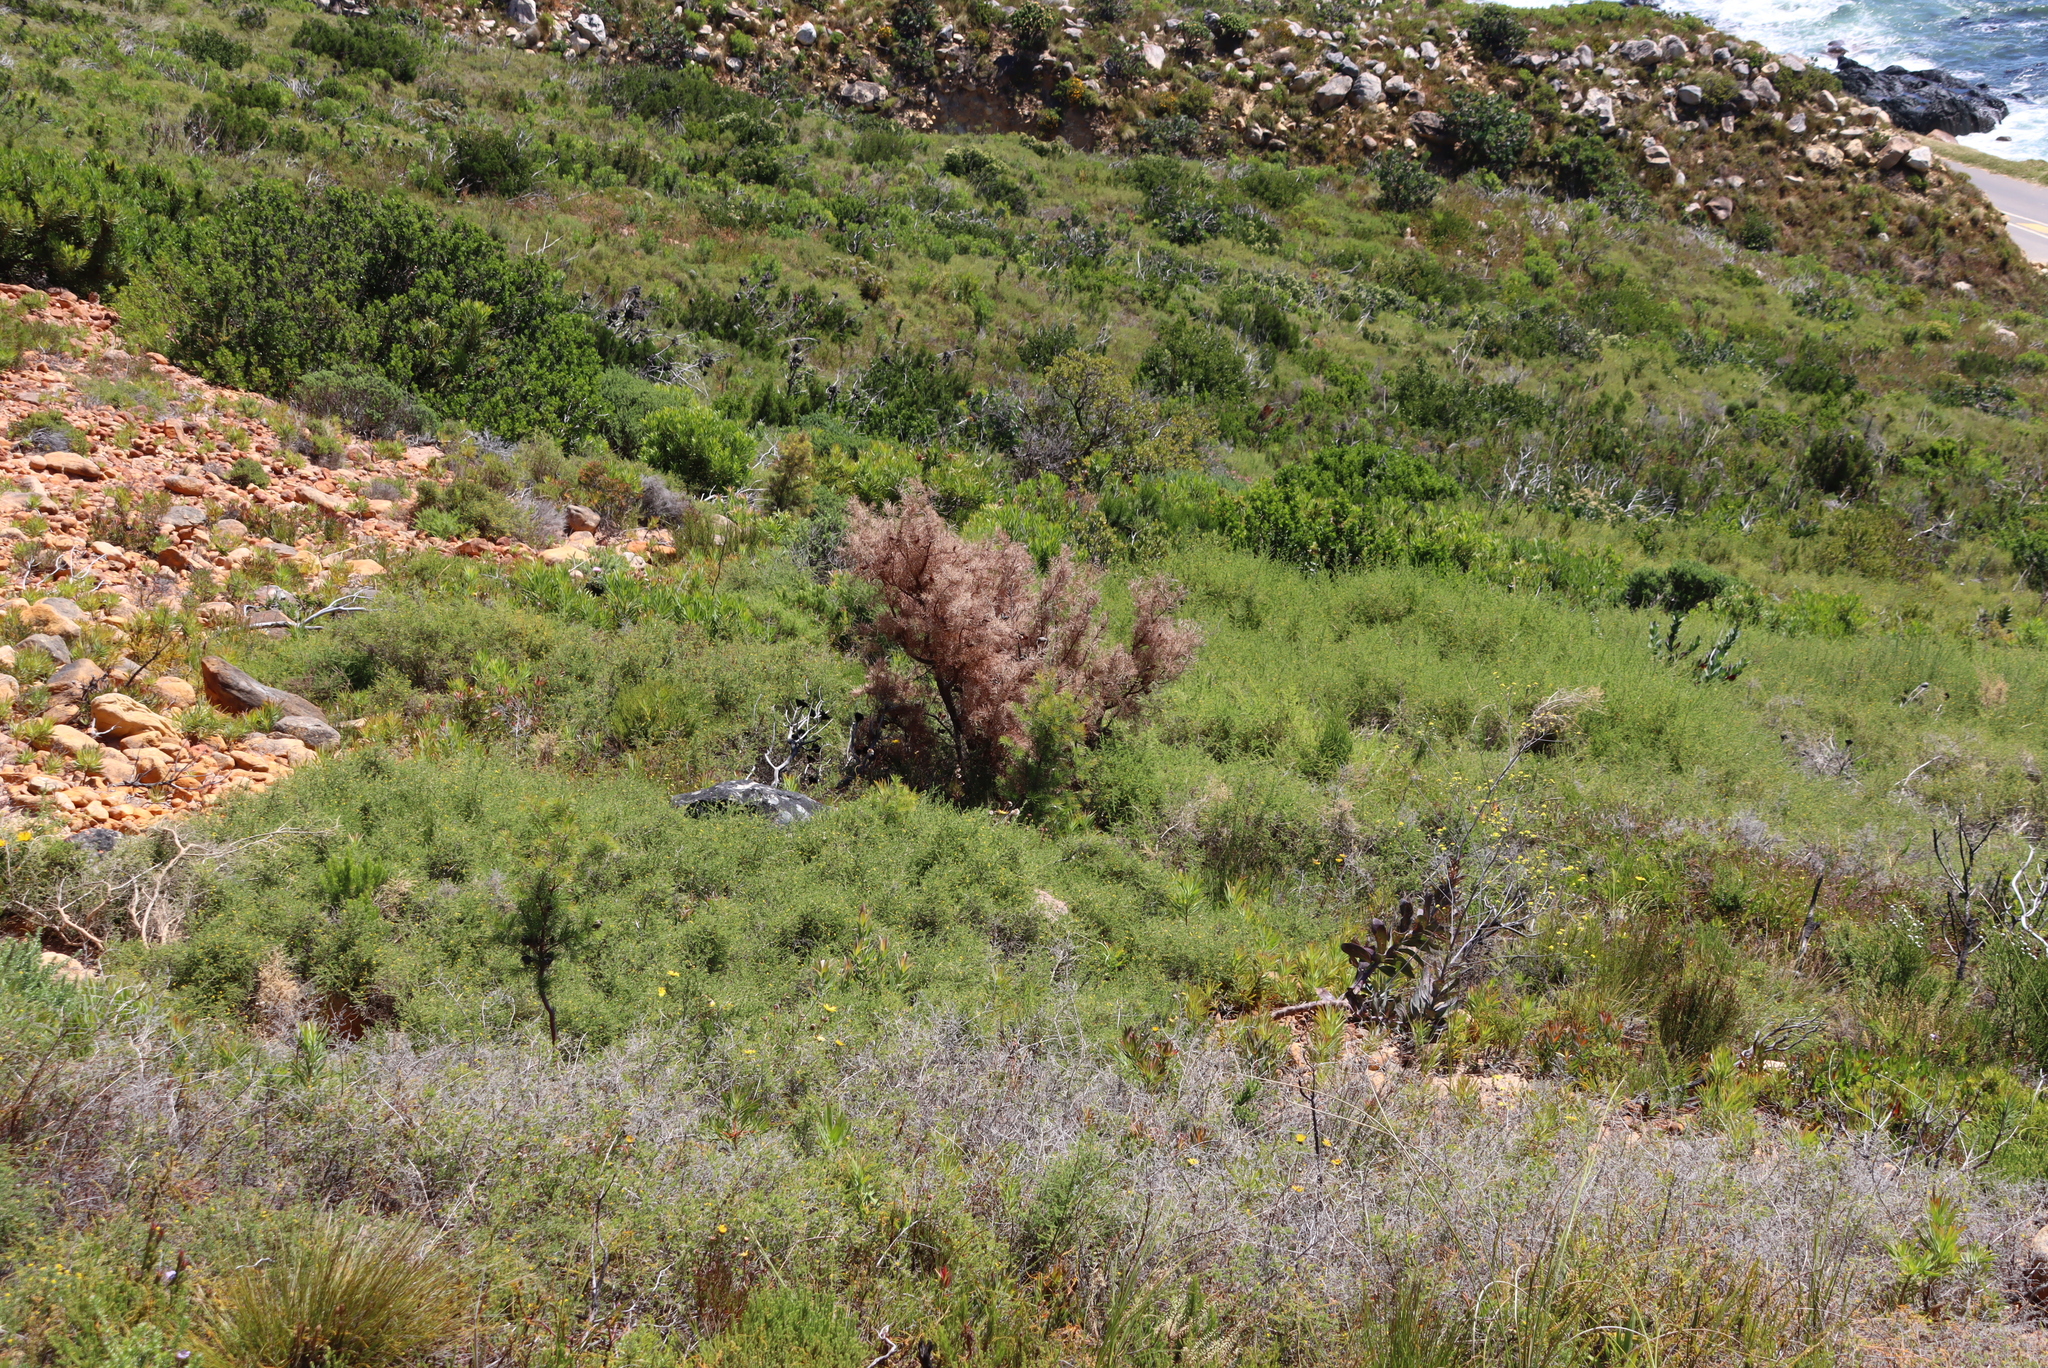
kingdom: Plantae
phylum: Tracheophyta
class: Magnoliopsida
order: Proteales
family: Proteaceae
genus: Hakea
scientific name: Hakea sericea
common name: Needle bush
